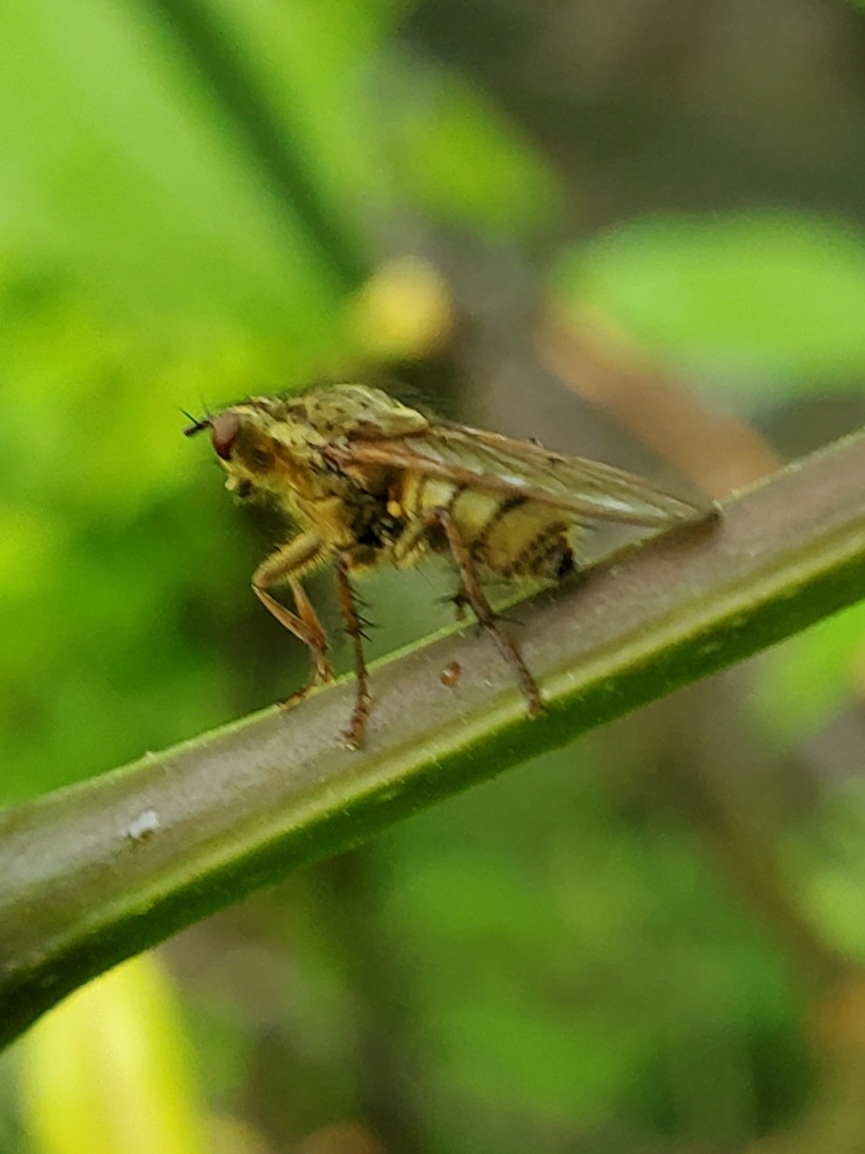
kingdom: Animalia
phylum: Arthropoda
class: Insecta
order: Diptera
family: Scathophagidae
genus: Scathophaga
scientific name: Scathophaga stercoraria
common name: Yellow dung fly
